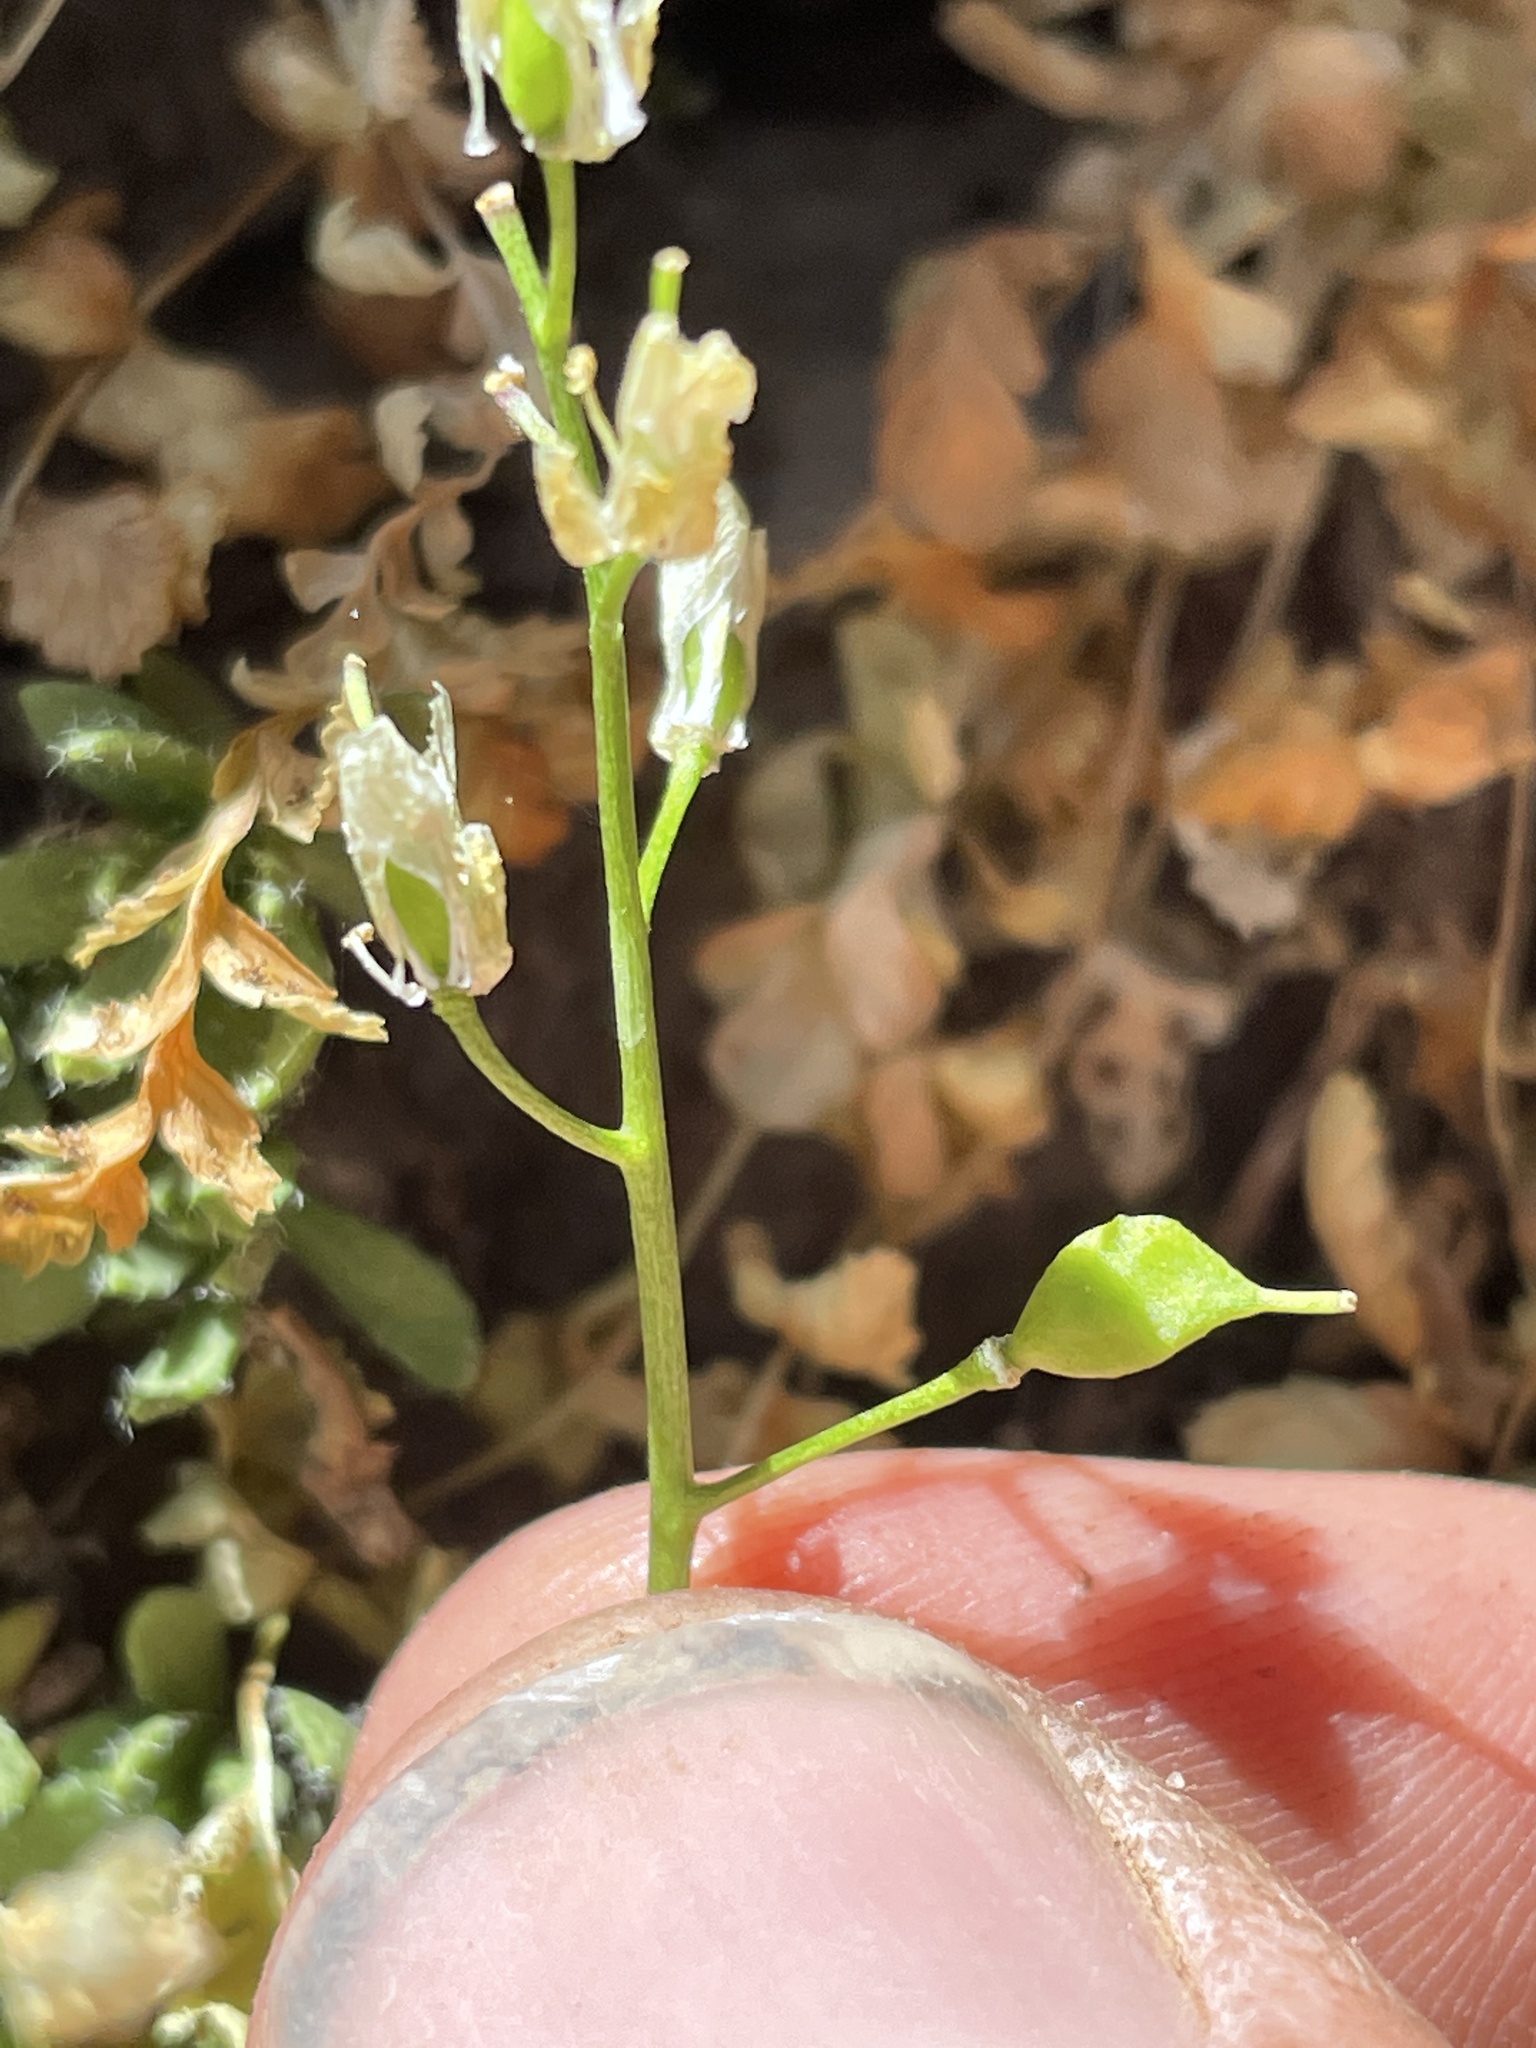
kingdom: Plantae
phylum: Tracheophyta
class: Magnoliopsida
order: Brassicales
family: Brassicaceae
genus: Draba
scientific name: Draba maguirei
